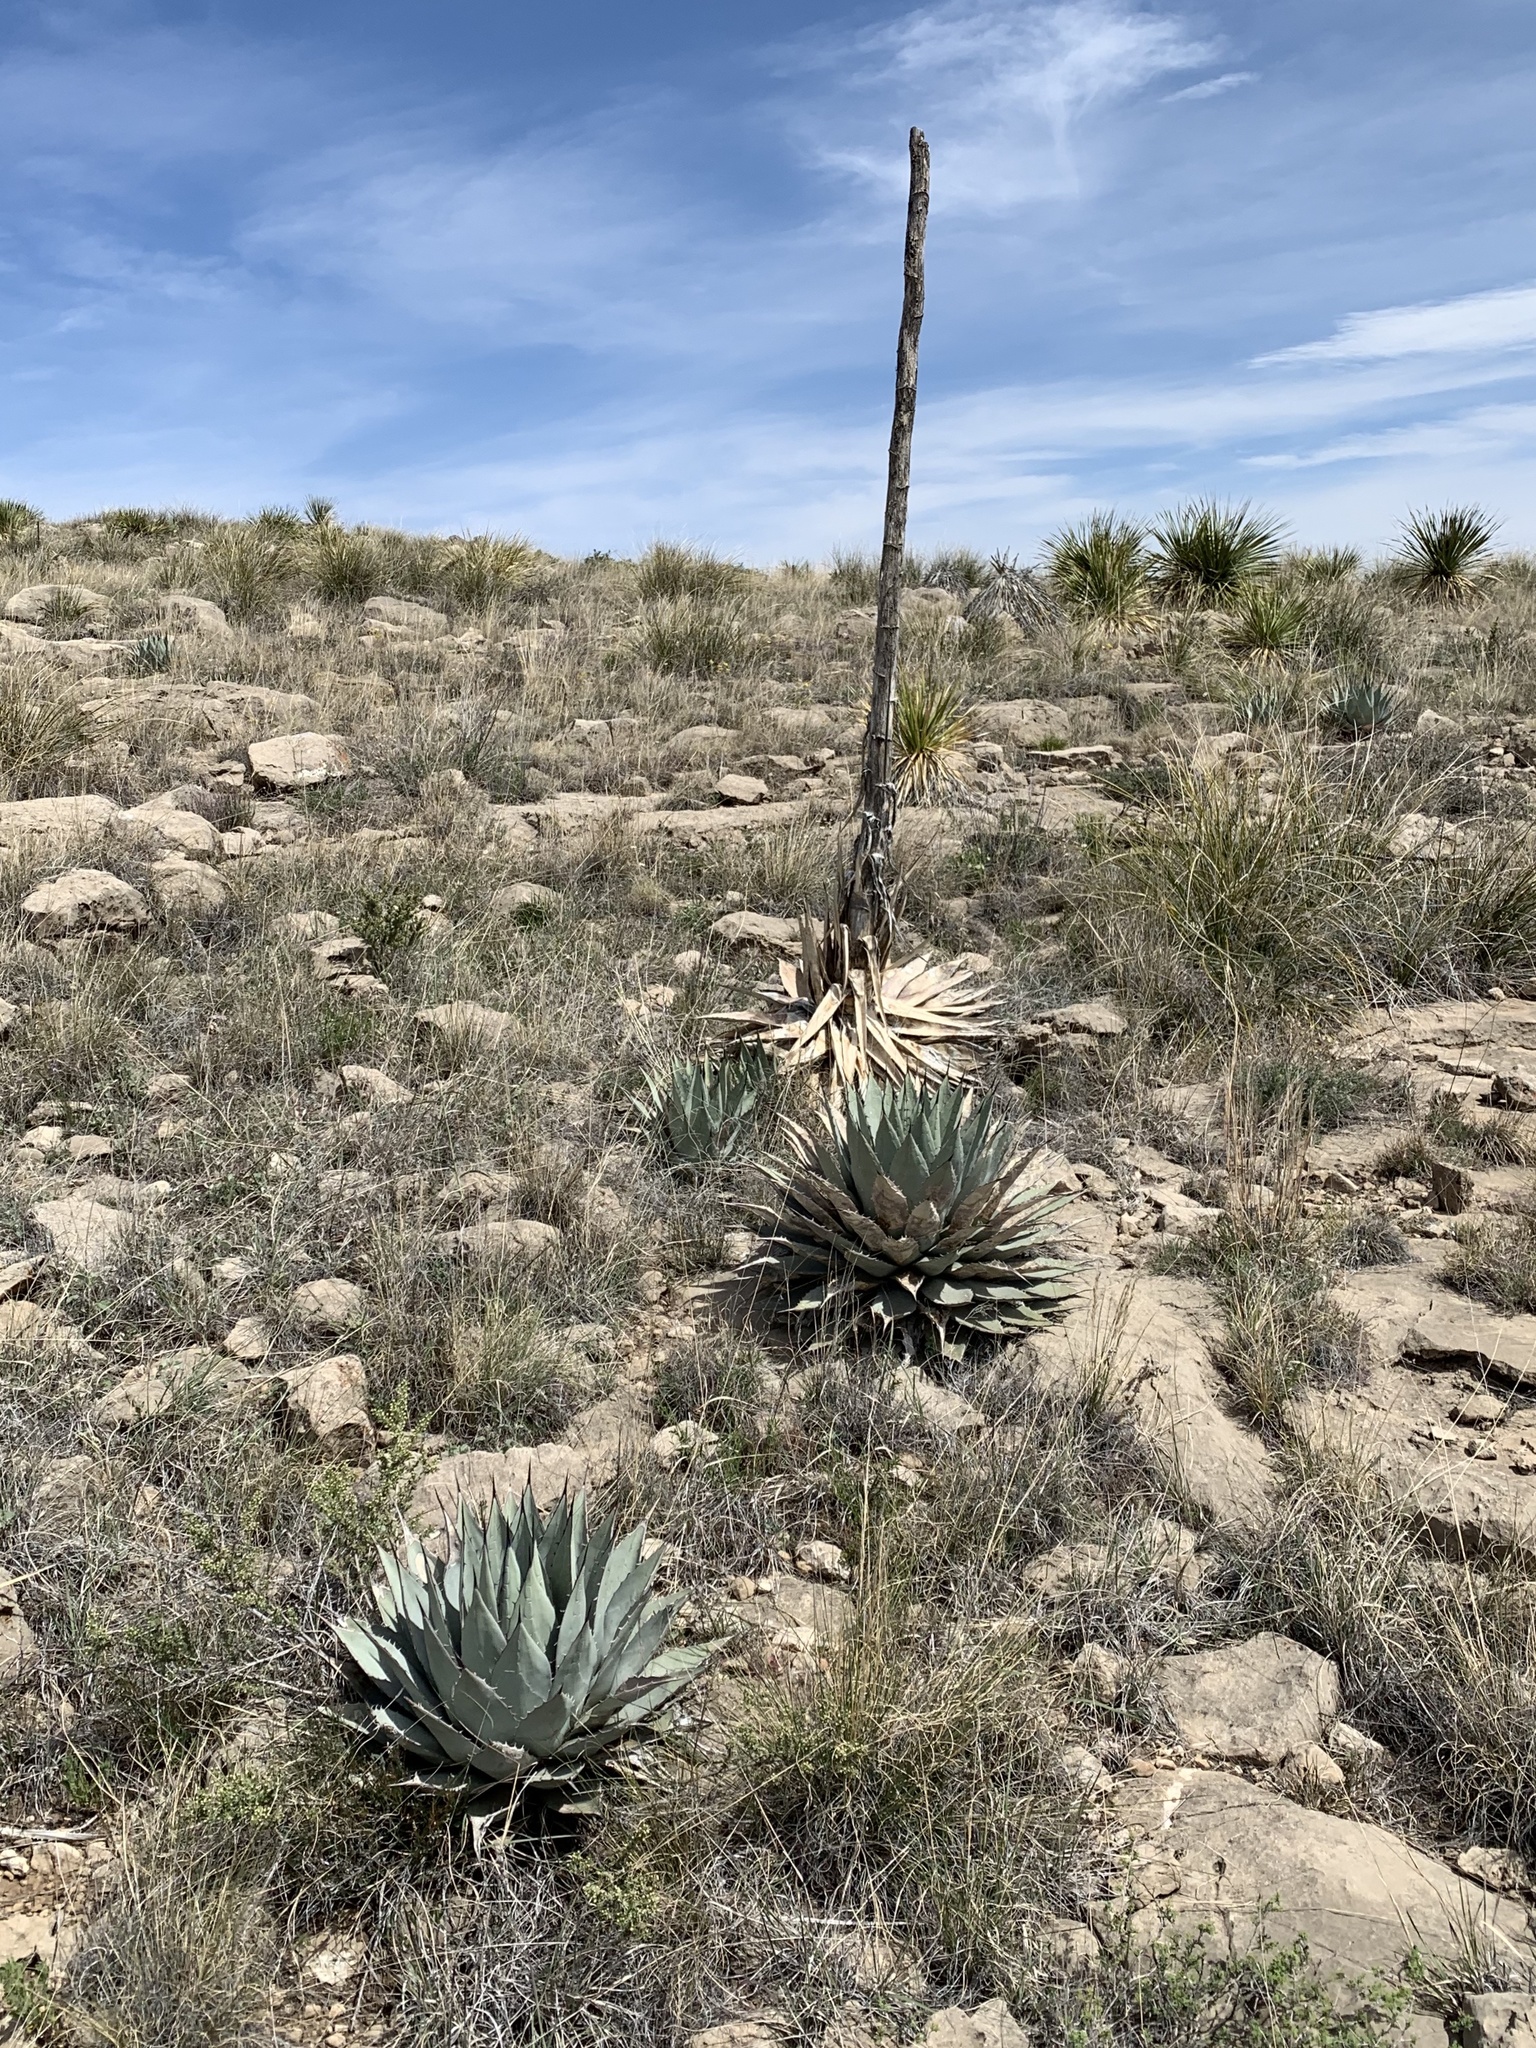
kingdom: Plantae
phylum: Tracheophyta
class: Liliopsida
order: Asparagales
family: Asparagaceae
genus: Agave
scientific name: Agave parryi
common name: Parry's agave
